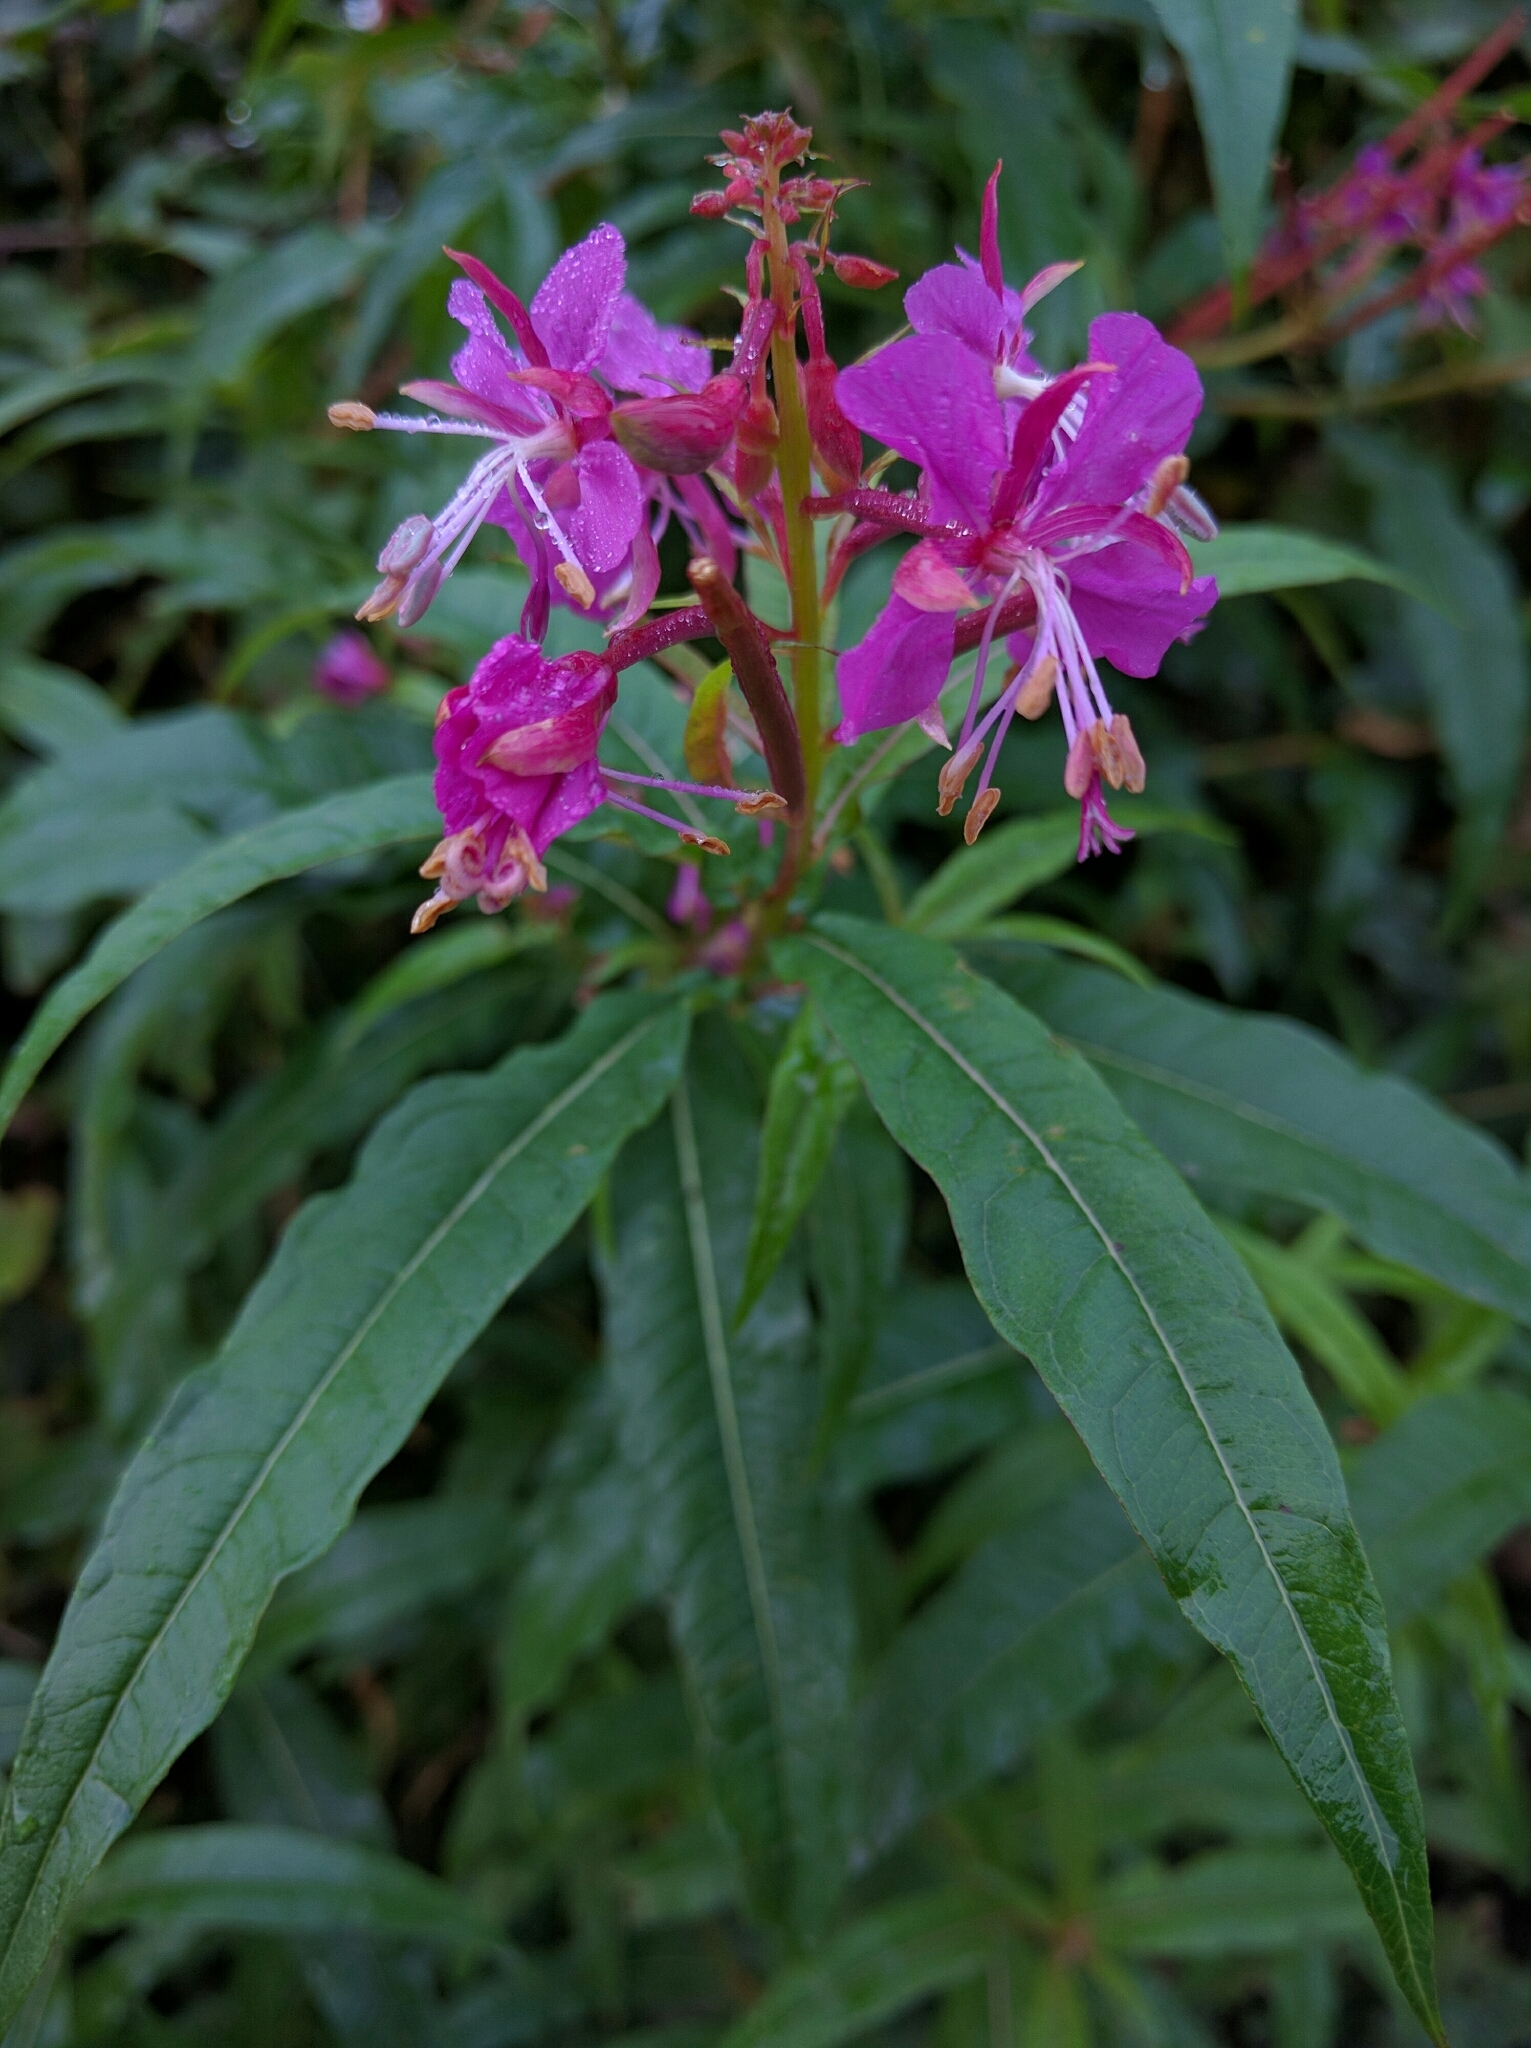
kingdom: Plantae
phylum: Tracheophyta
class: Magnoliopsida
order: Myrtales
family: Onagraceae
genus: Chamaenerion
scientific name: Chamaenerion angustifolium
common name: Fireweed
